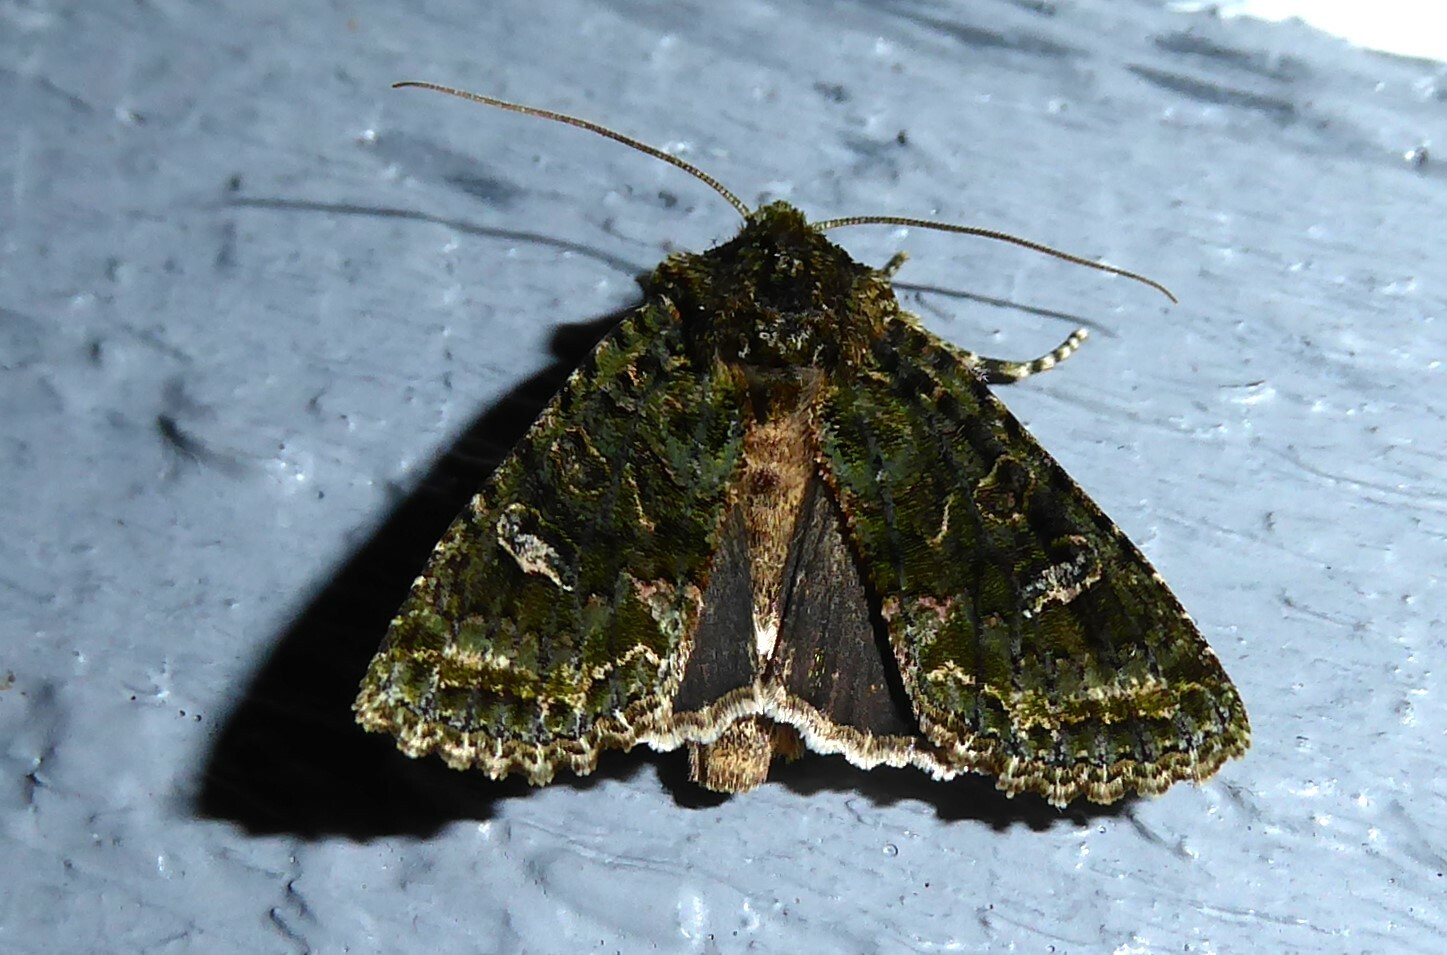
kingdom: Animalia
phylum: Arthropoda
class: Insecta
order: Lepidoptera
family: Noctuidae
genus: Ichneutica
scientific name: Ichneutica
